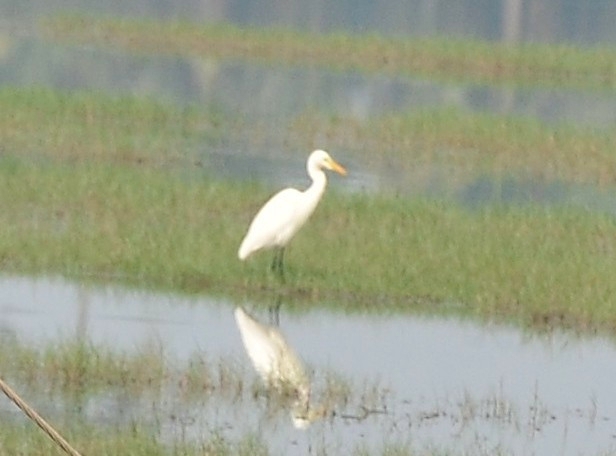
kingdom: Animalia
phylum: Chordata
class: Aves
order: Pelecaniformes
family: Ardeidae
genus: Egretta
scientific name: Egretta intermedia
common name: Intermediate egret
